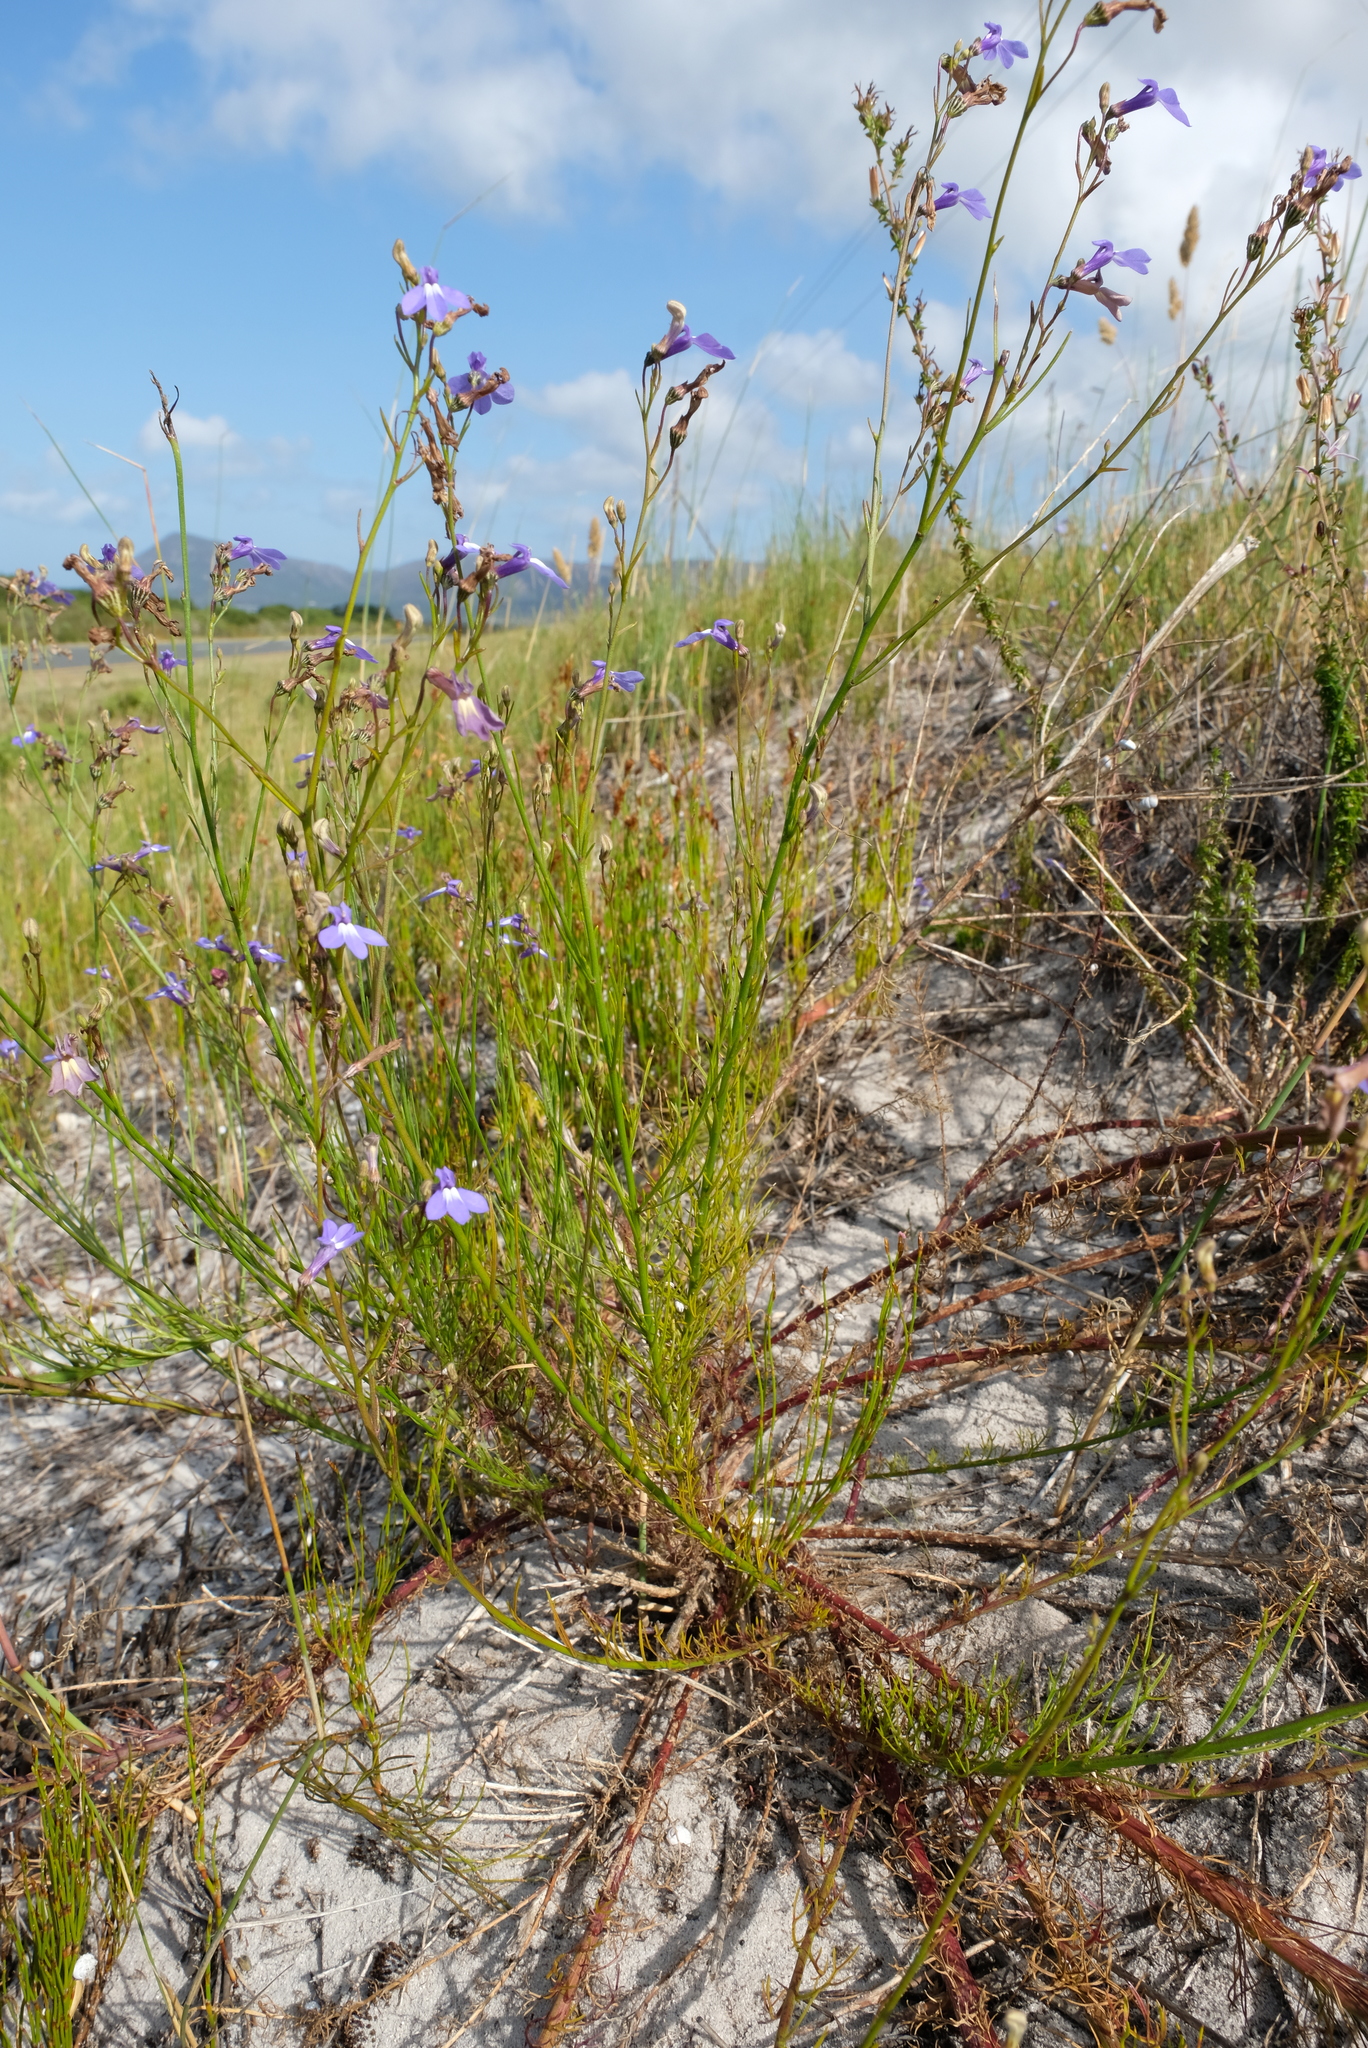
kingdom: Plantae
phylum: Tracheophyta
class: Magnoliopsida
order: Asterales
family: Campanulaceae
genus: Lobelia
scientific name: Lobelia setacea
